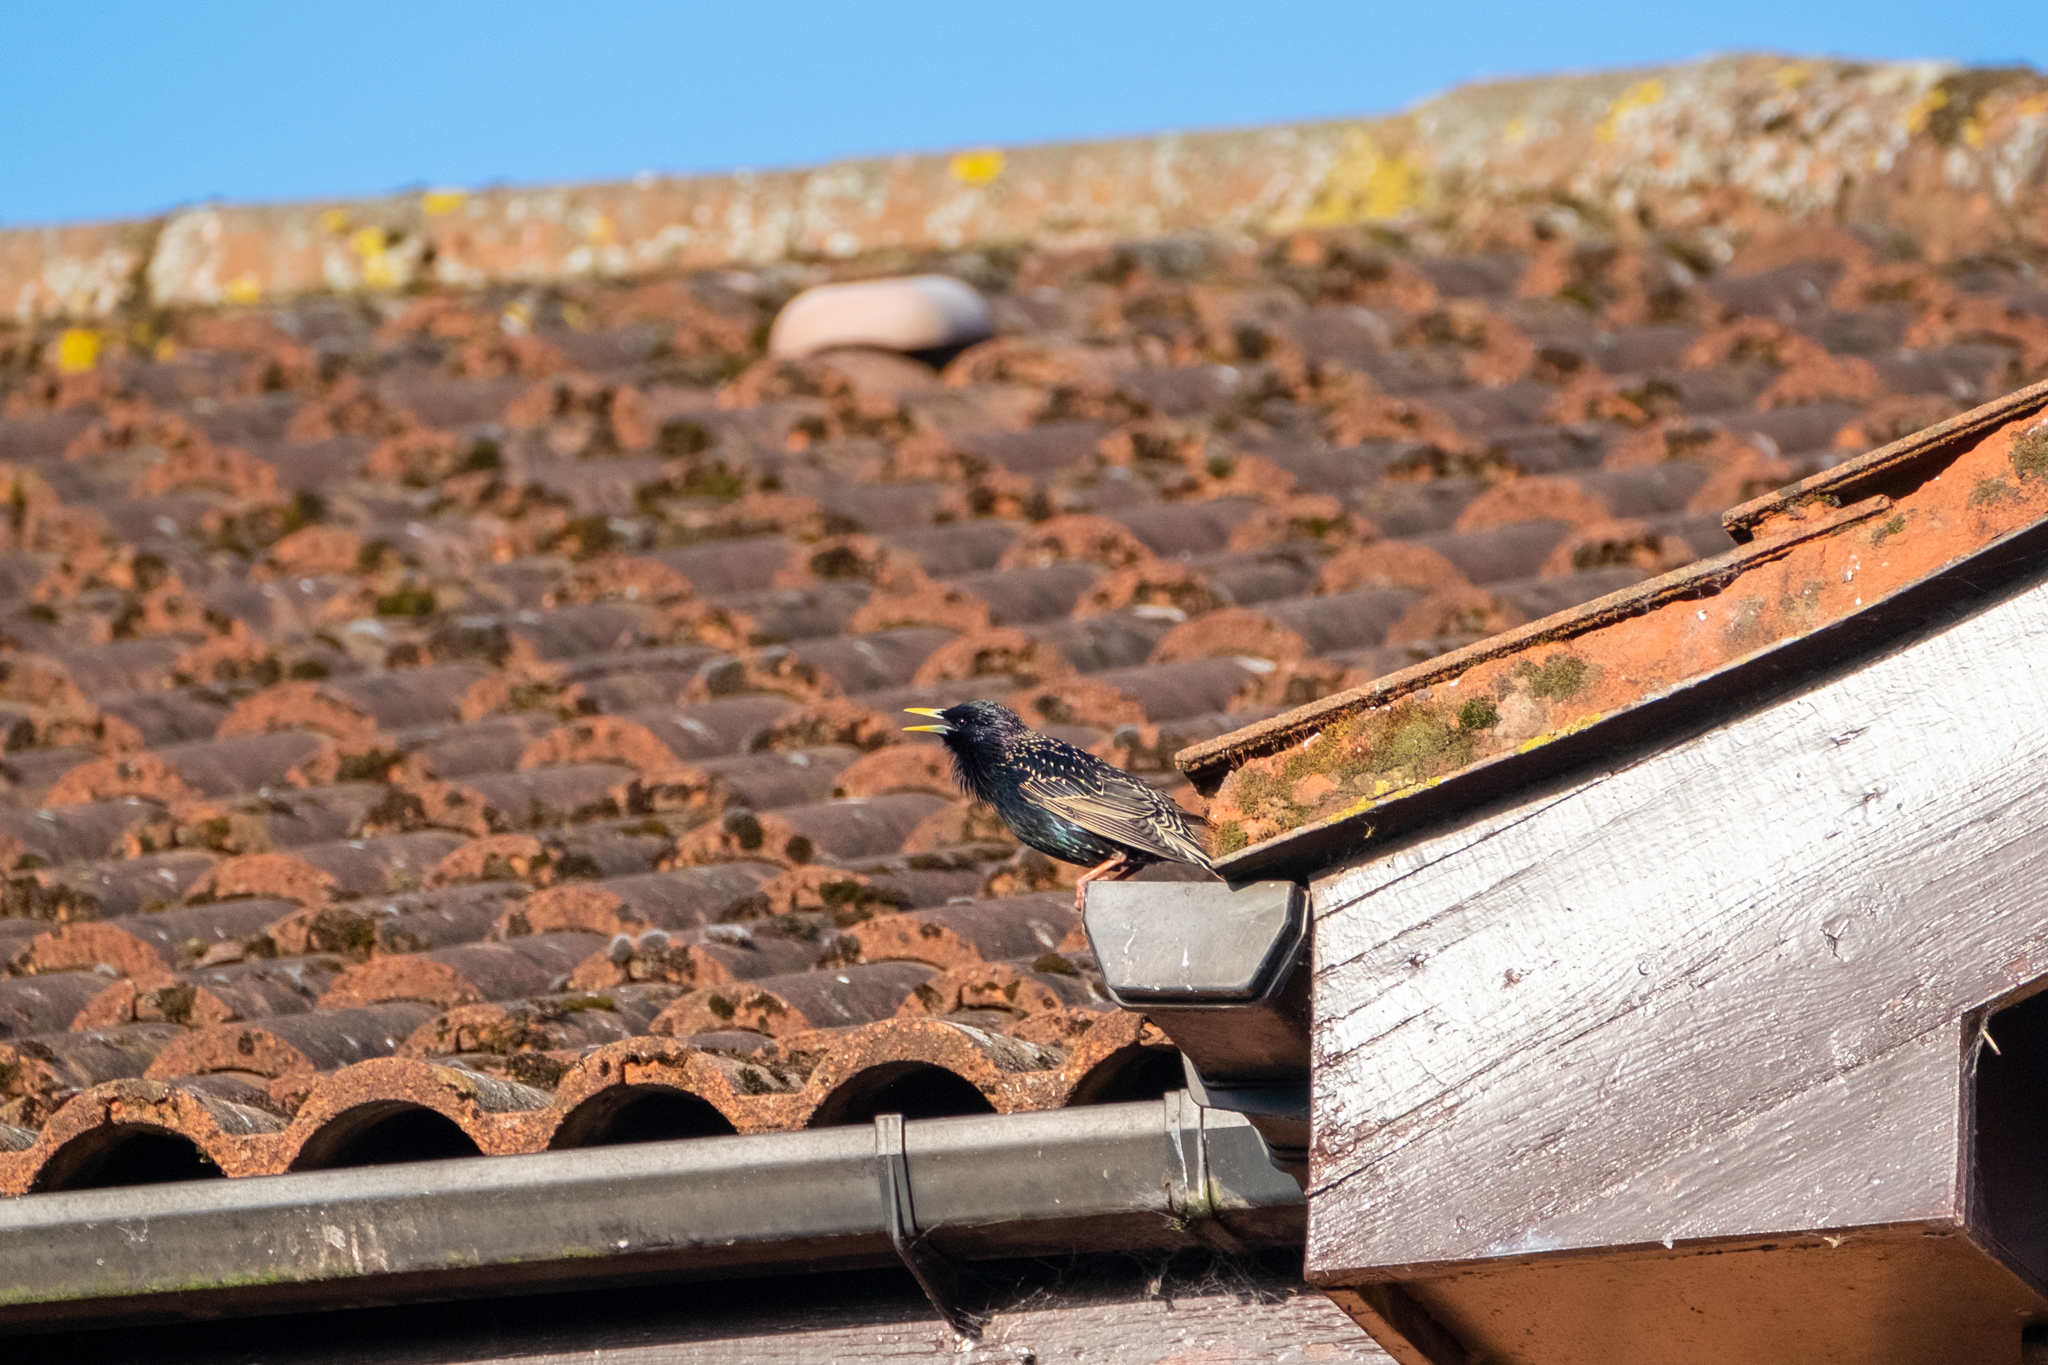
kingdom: Animalia
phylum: Chordata
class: Aves
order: Passeriformes
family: Sturnidae
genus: Sturnus
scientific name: Sturnus vulgaris
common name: Common starling
